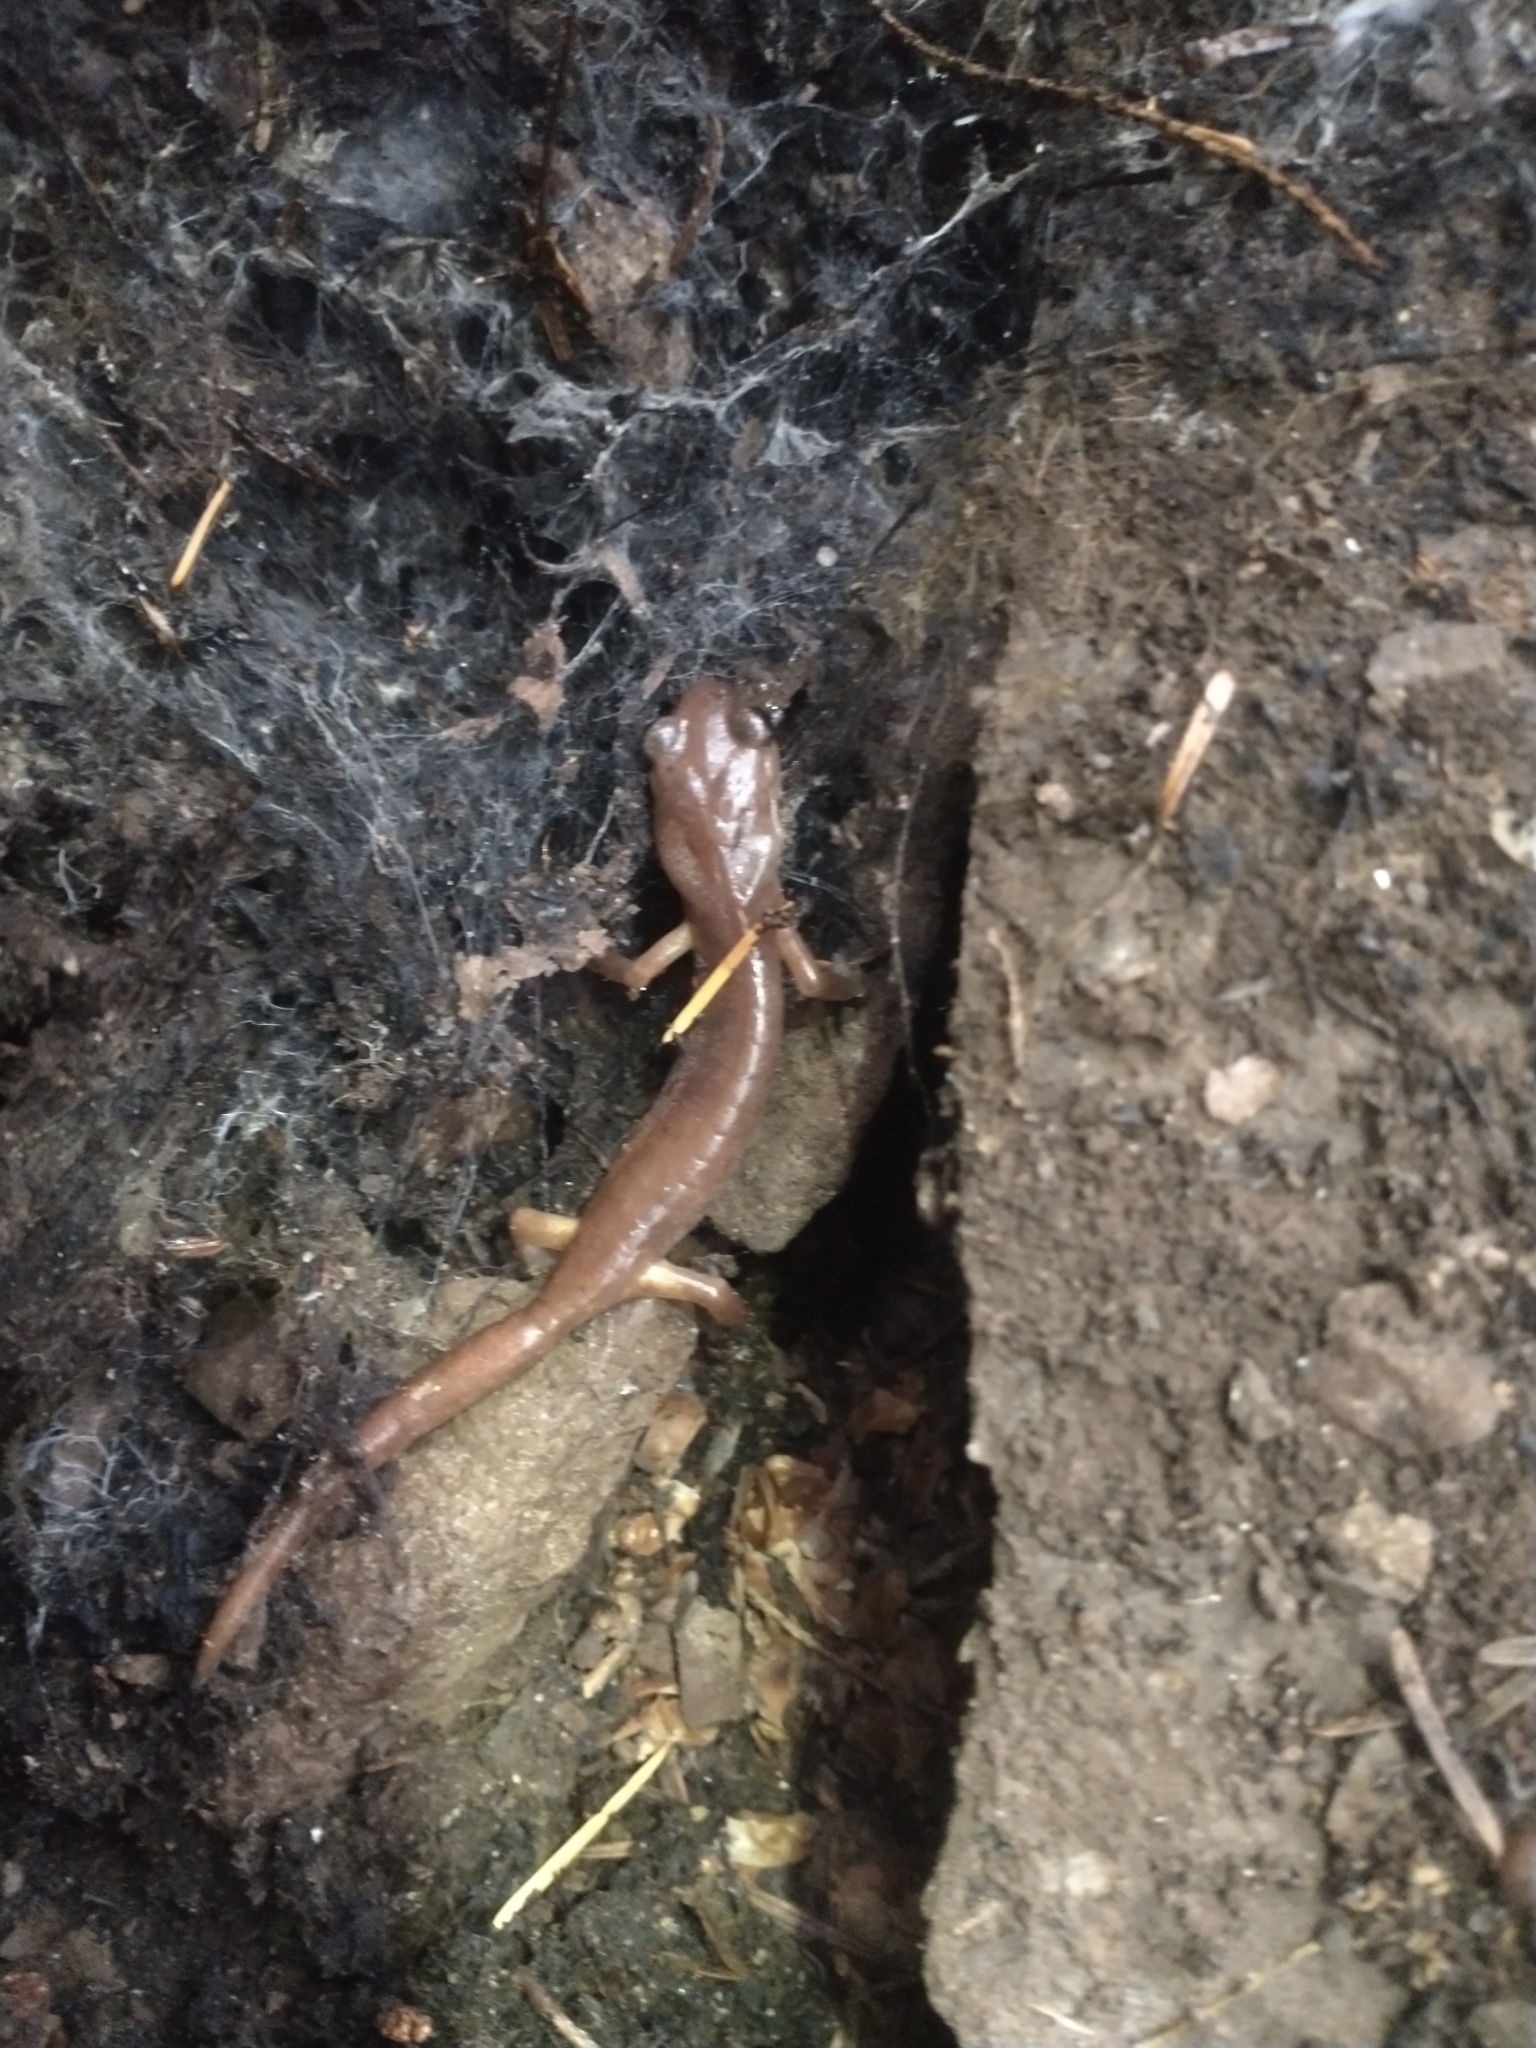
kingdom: Animalia
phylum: Chordata
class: Amphibia
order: Caudata
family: Plethodontidae
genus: Ensatina
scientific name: Ensatina eschscholtzii
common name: Ensatina
